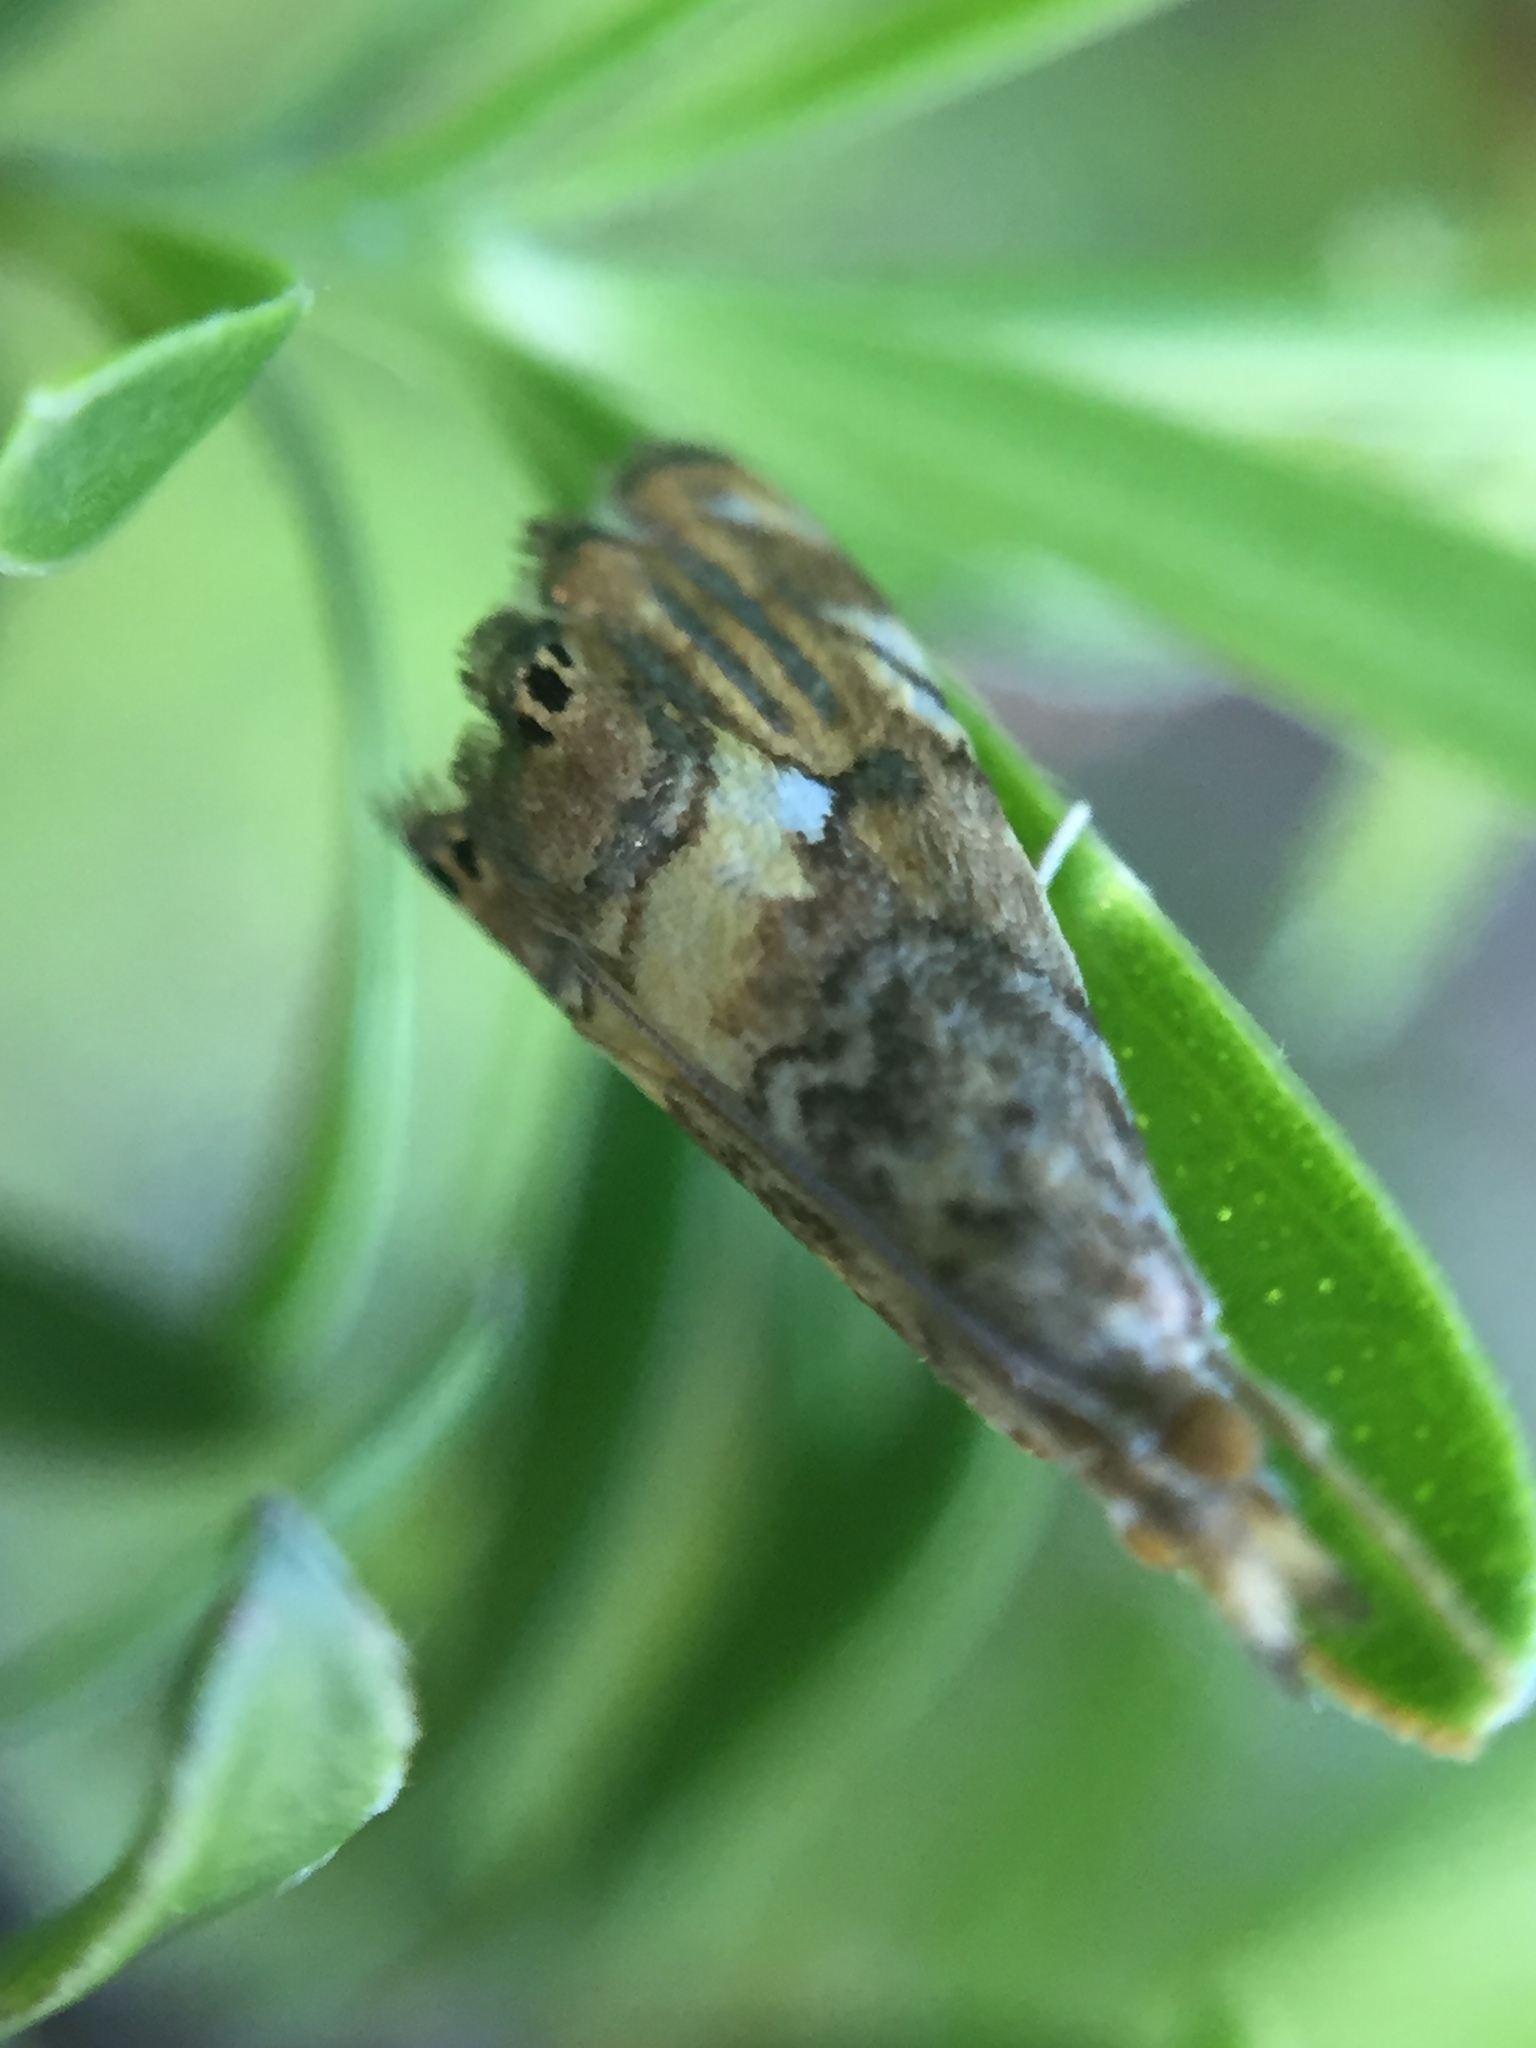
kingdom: Animalia
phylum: Arthropoda
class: Insecta
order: Lepidoptera
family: Crambidae
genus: Glaucocharis
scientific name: Glaucocharis chrysochyta
